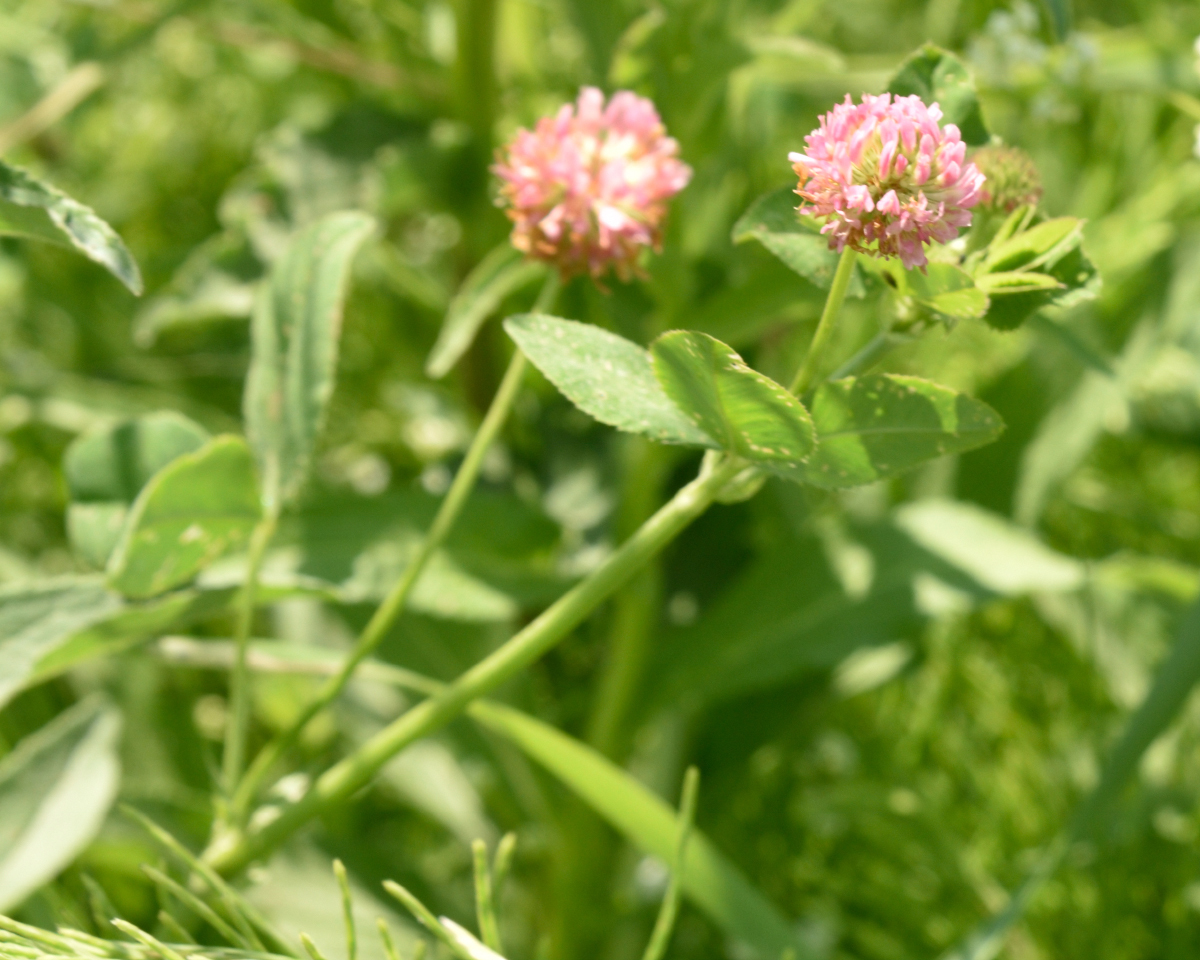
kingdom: Plantae
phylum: Tracheophyta
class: Magnoliopsida
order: Fabales
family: Fabaceae
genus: Trifolium
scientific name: Trifolium hybridum
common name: Alsike clover
